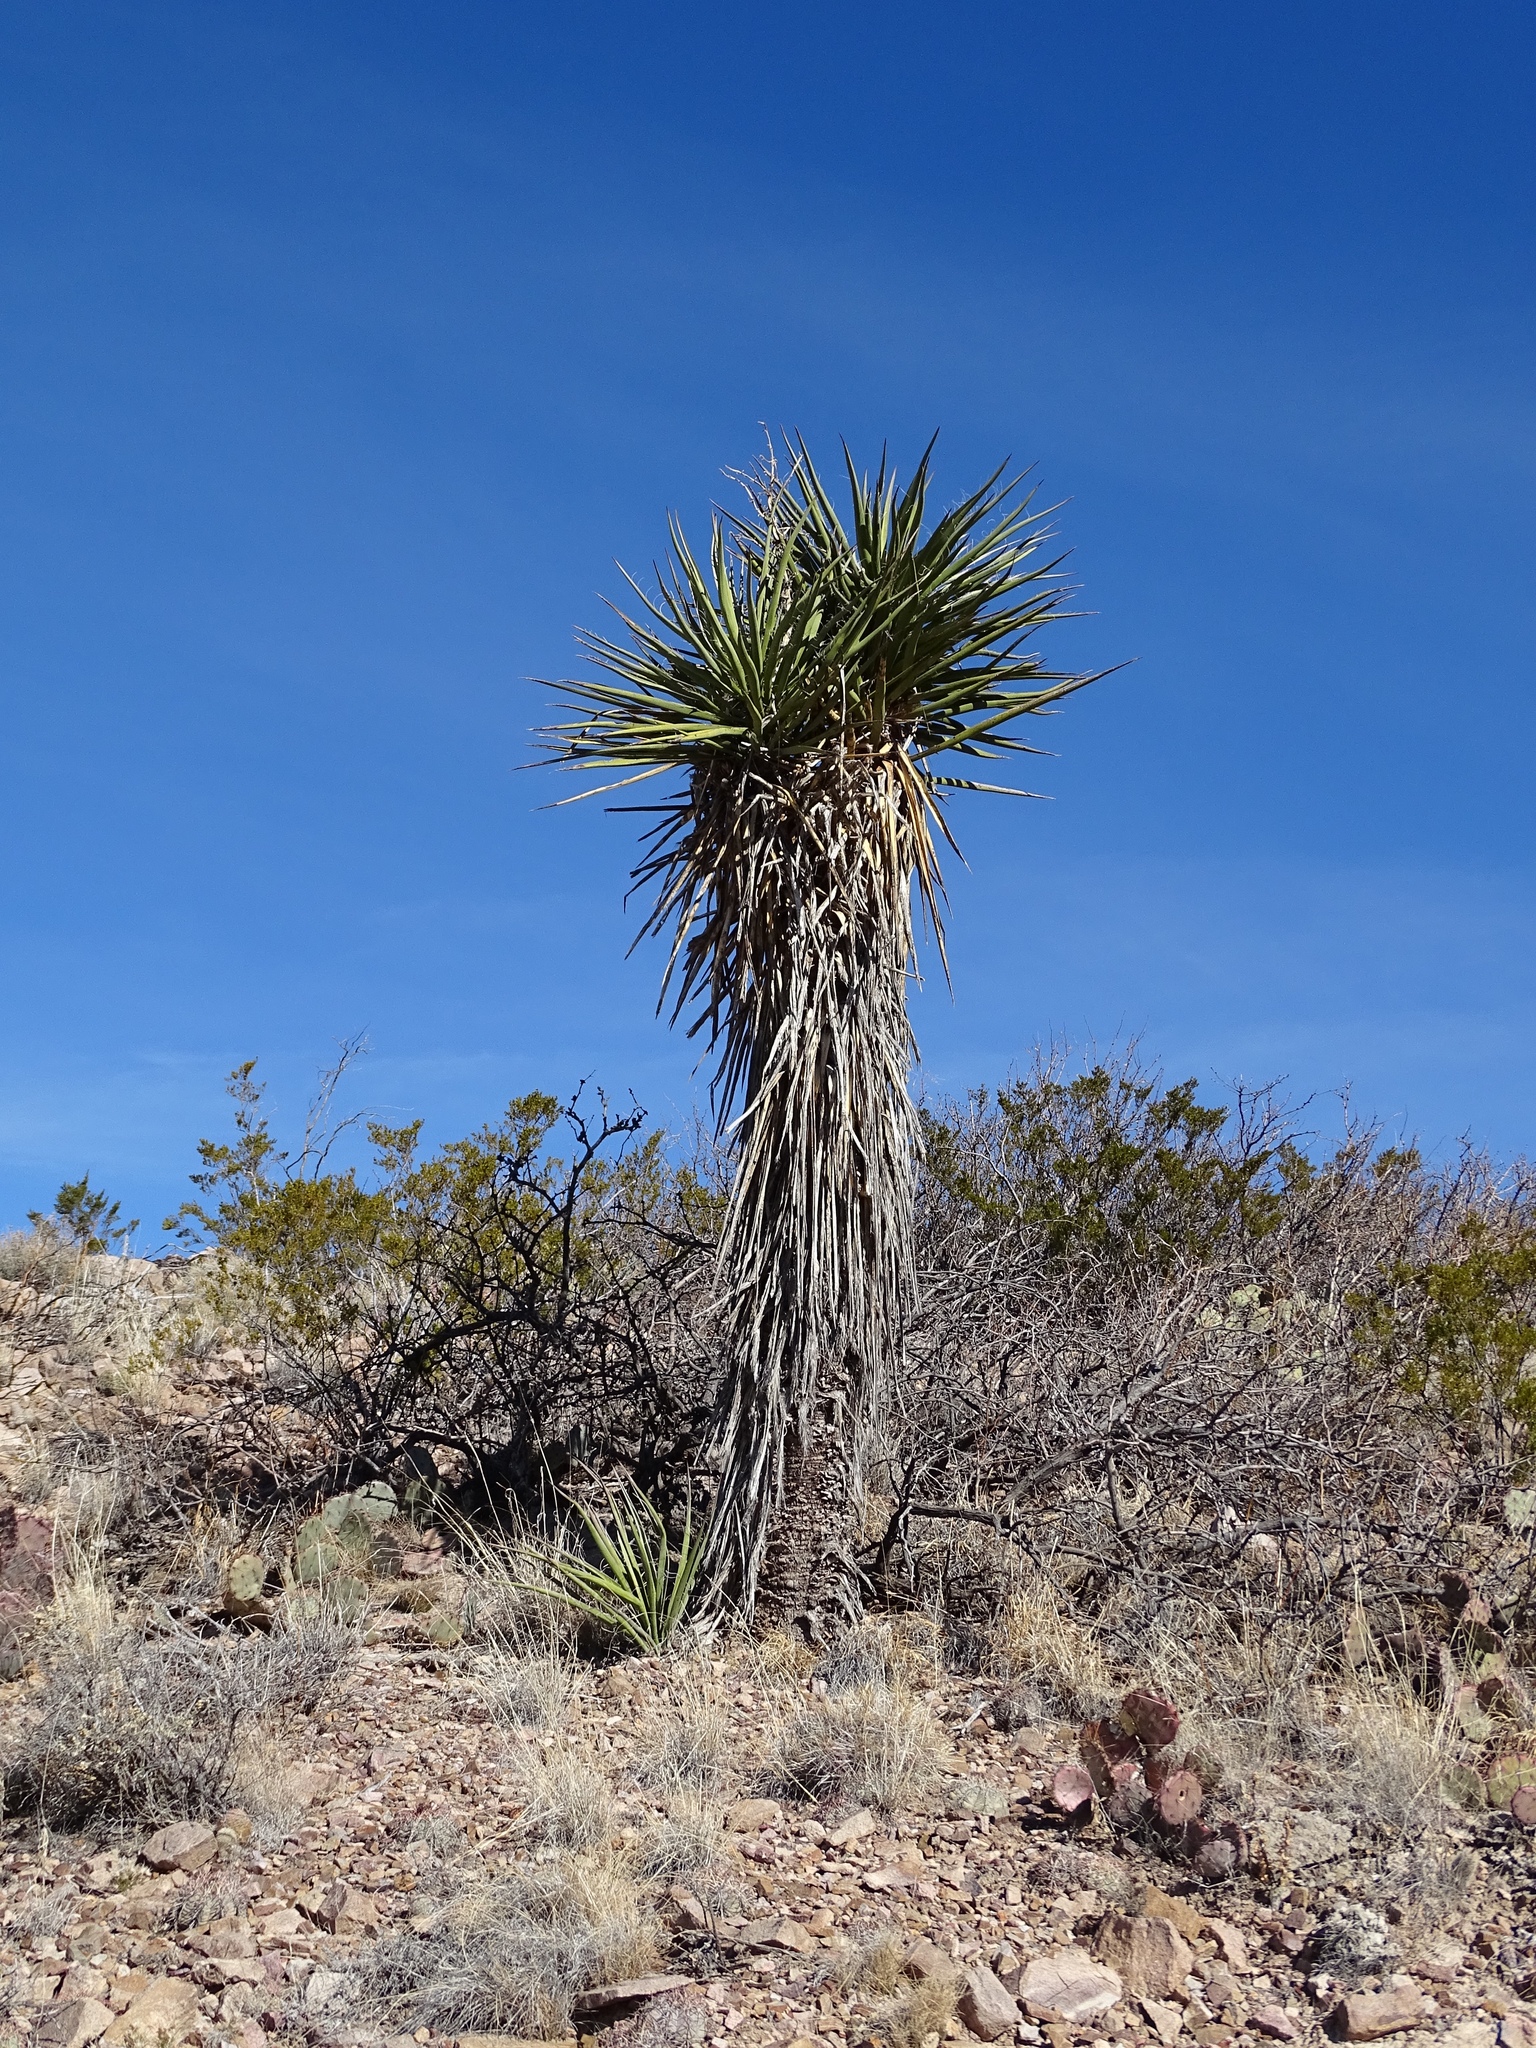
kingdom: Plantae
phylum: Tracheophyta
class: Liliopsida
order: Asparagales
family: Asparagaceae
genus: Yucca
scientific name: Yucca treculiana
